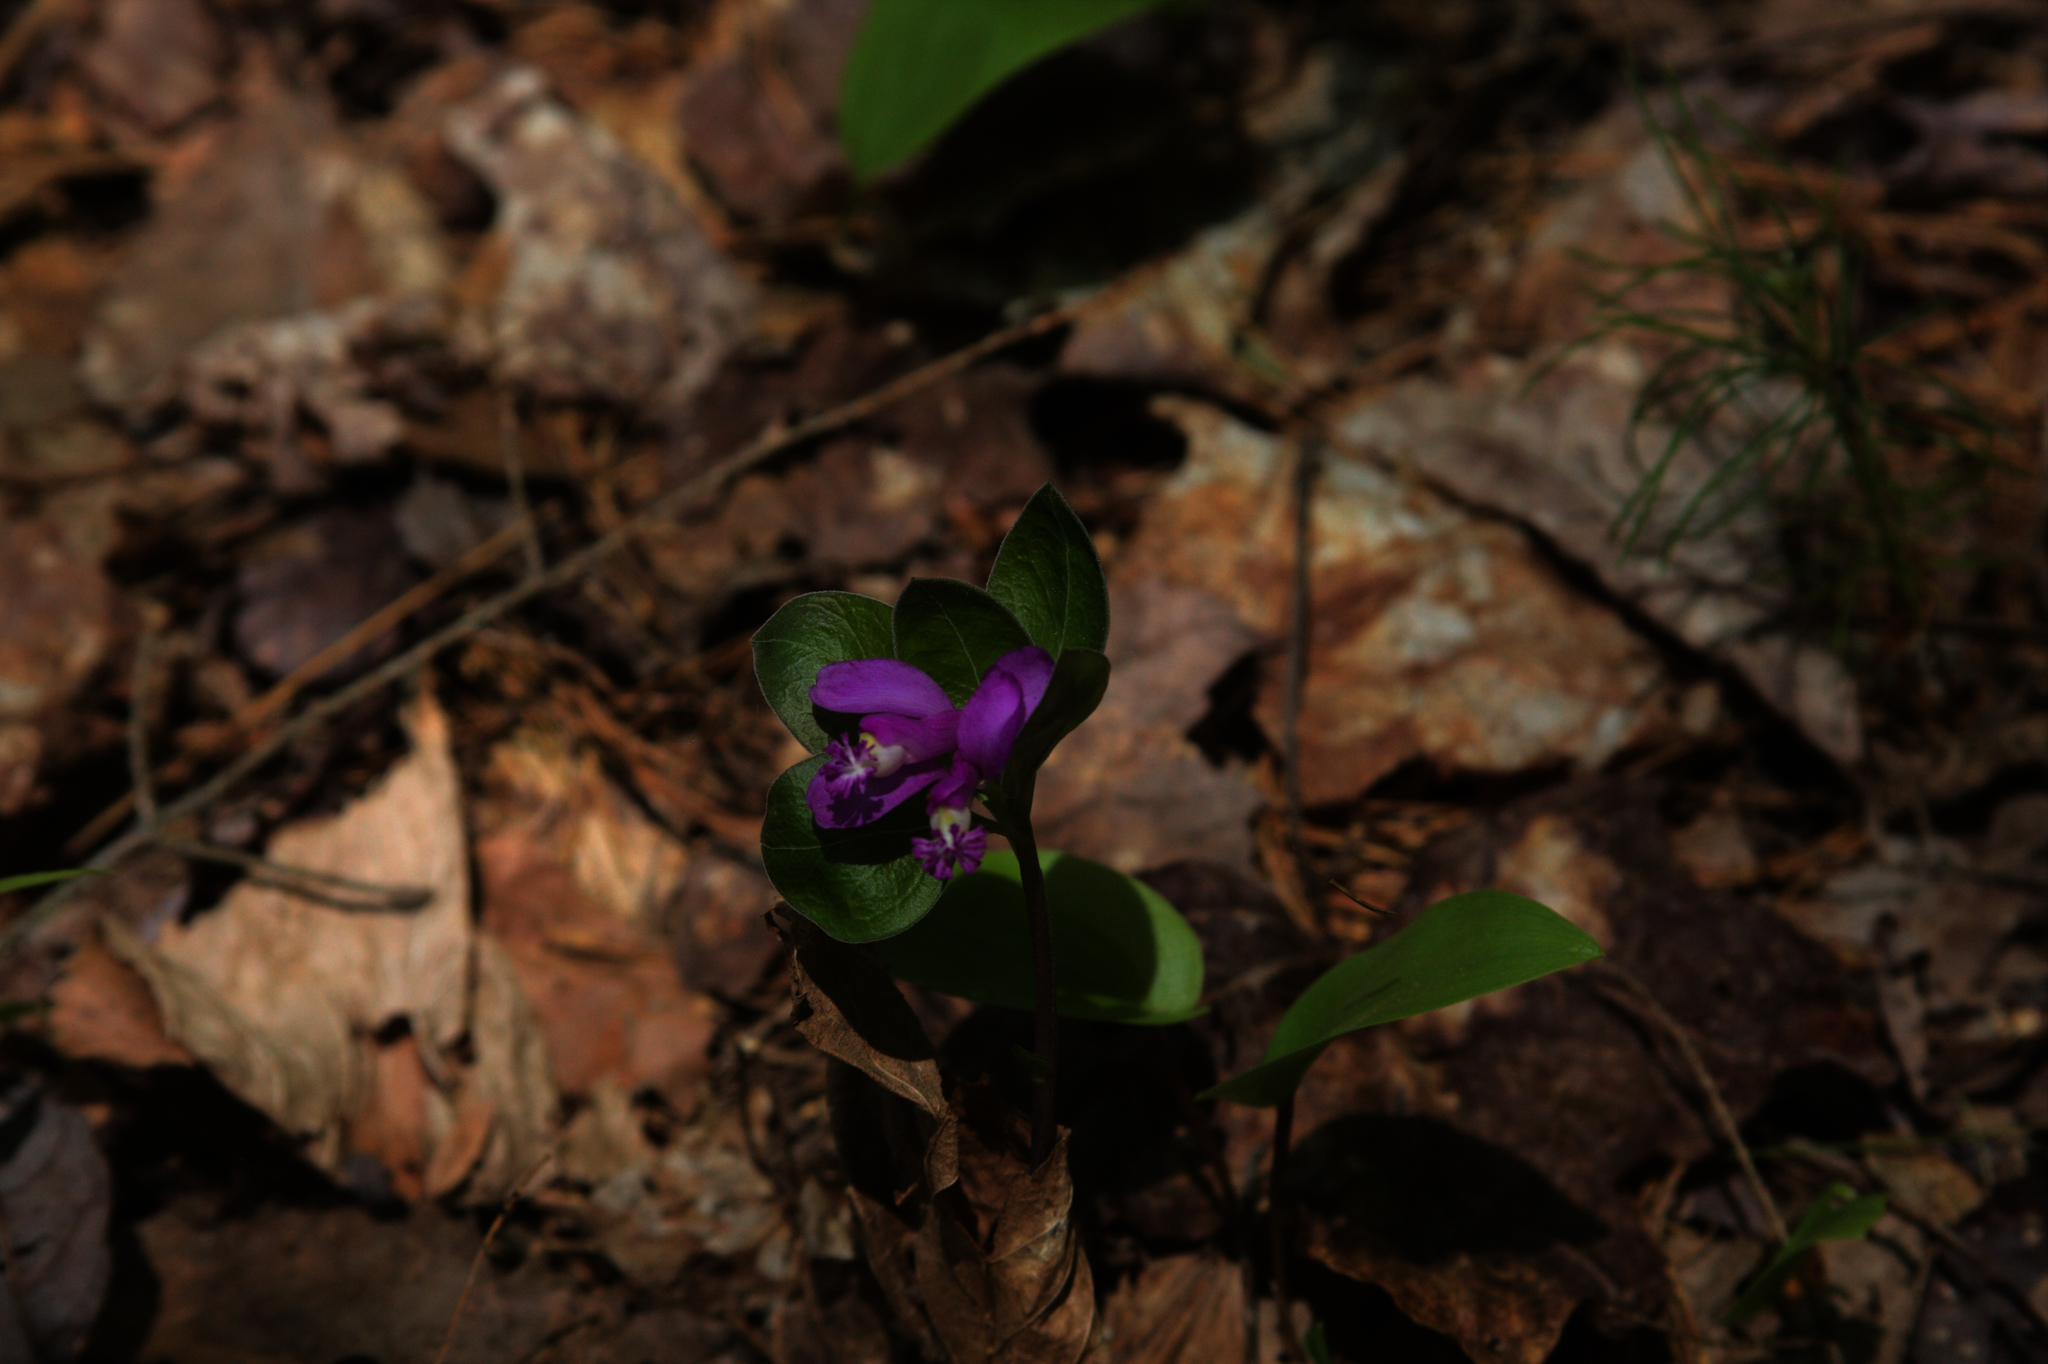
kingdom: Plantae
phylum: Tracheophyta
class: Magnoliopsida
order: Fabales
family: Polygalaceae
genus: Polygaloides
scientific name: Polygaloides paucifolia
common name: Bird-on-the-wing
